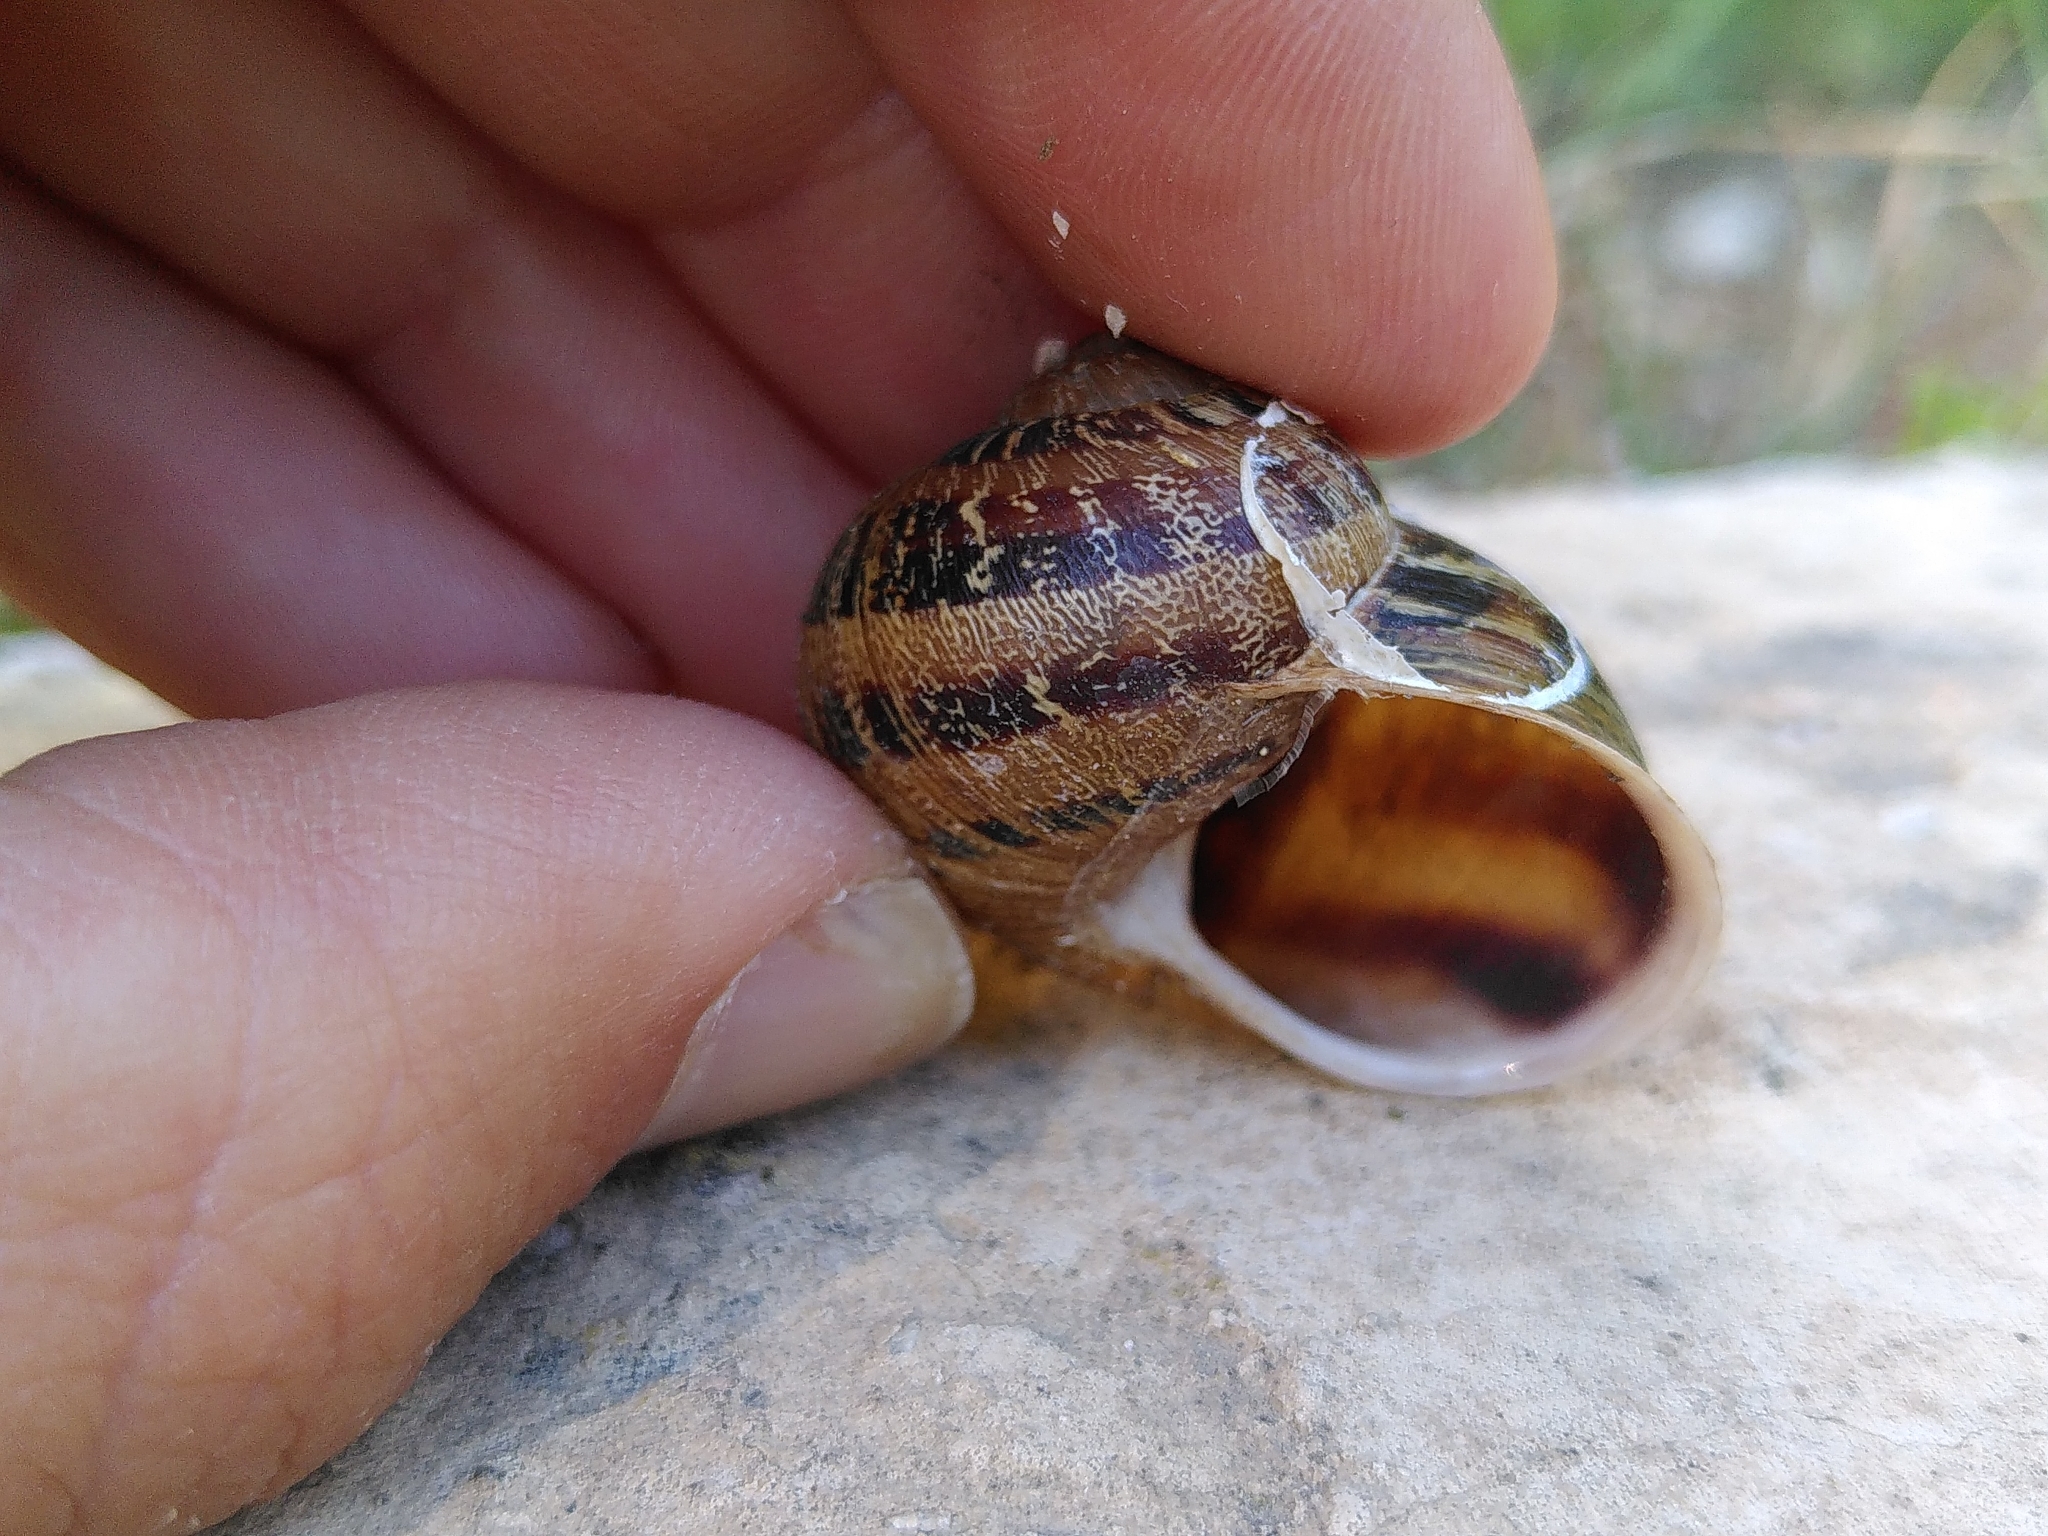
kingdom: Animalia
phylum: Mollusca
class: Gastropoda
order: Stylommatophora
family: Helicidae
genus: Cornu
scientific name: Cornu aspersum
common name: Brown garden snail
